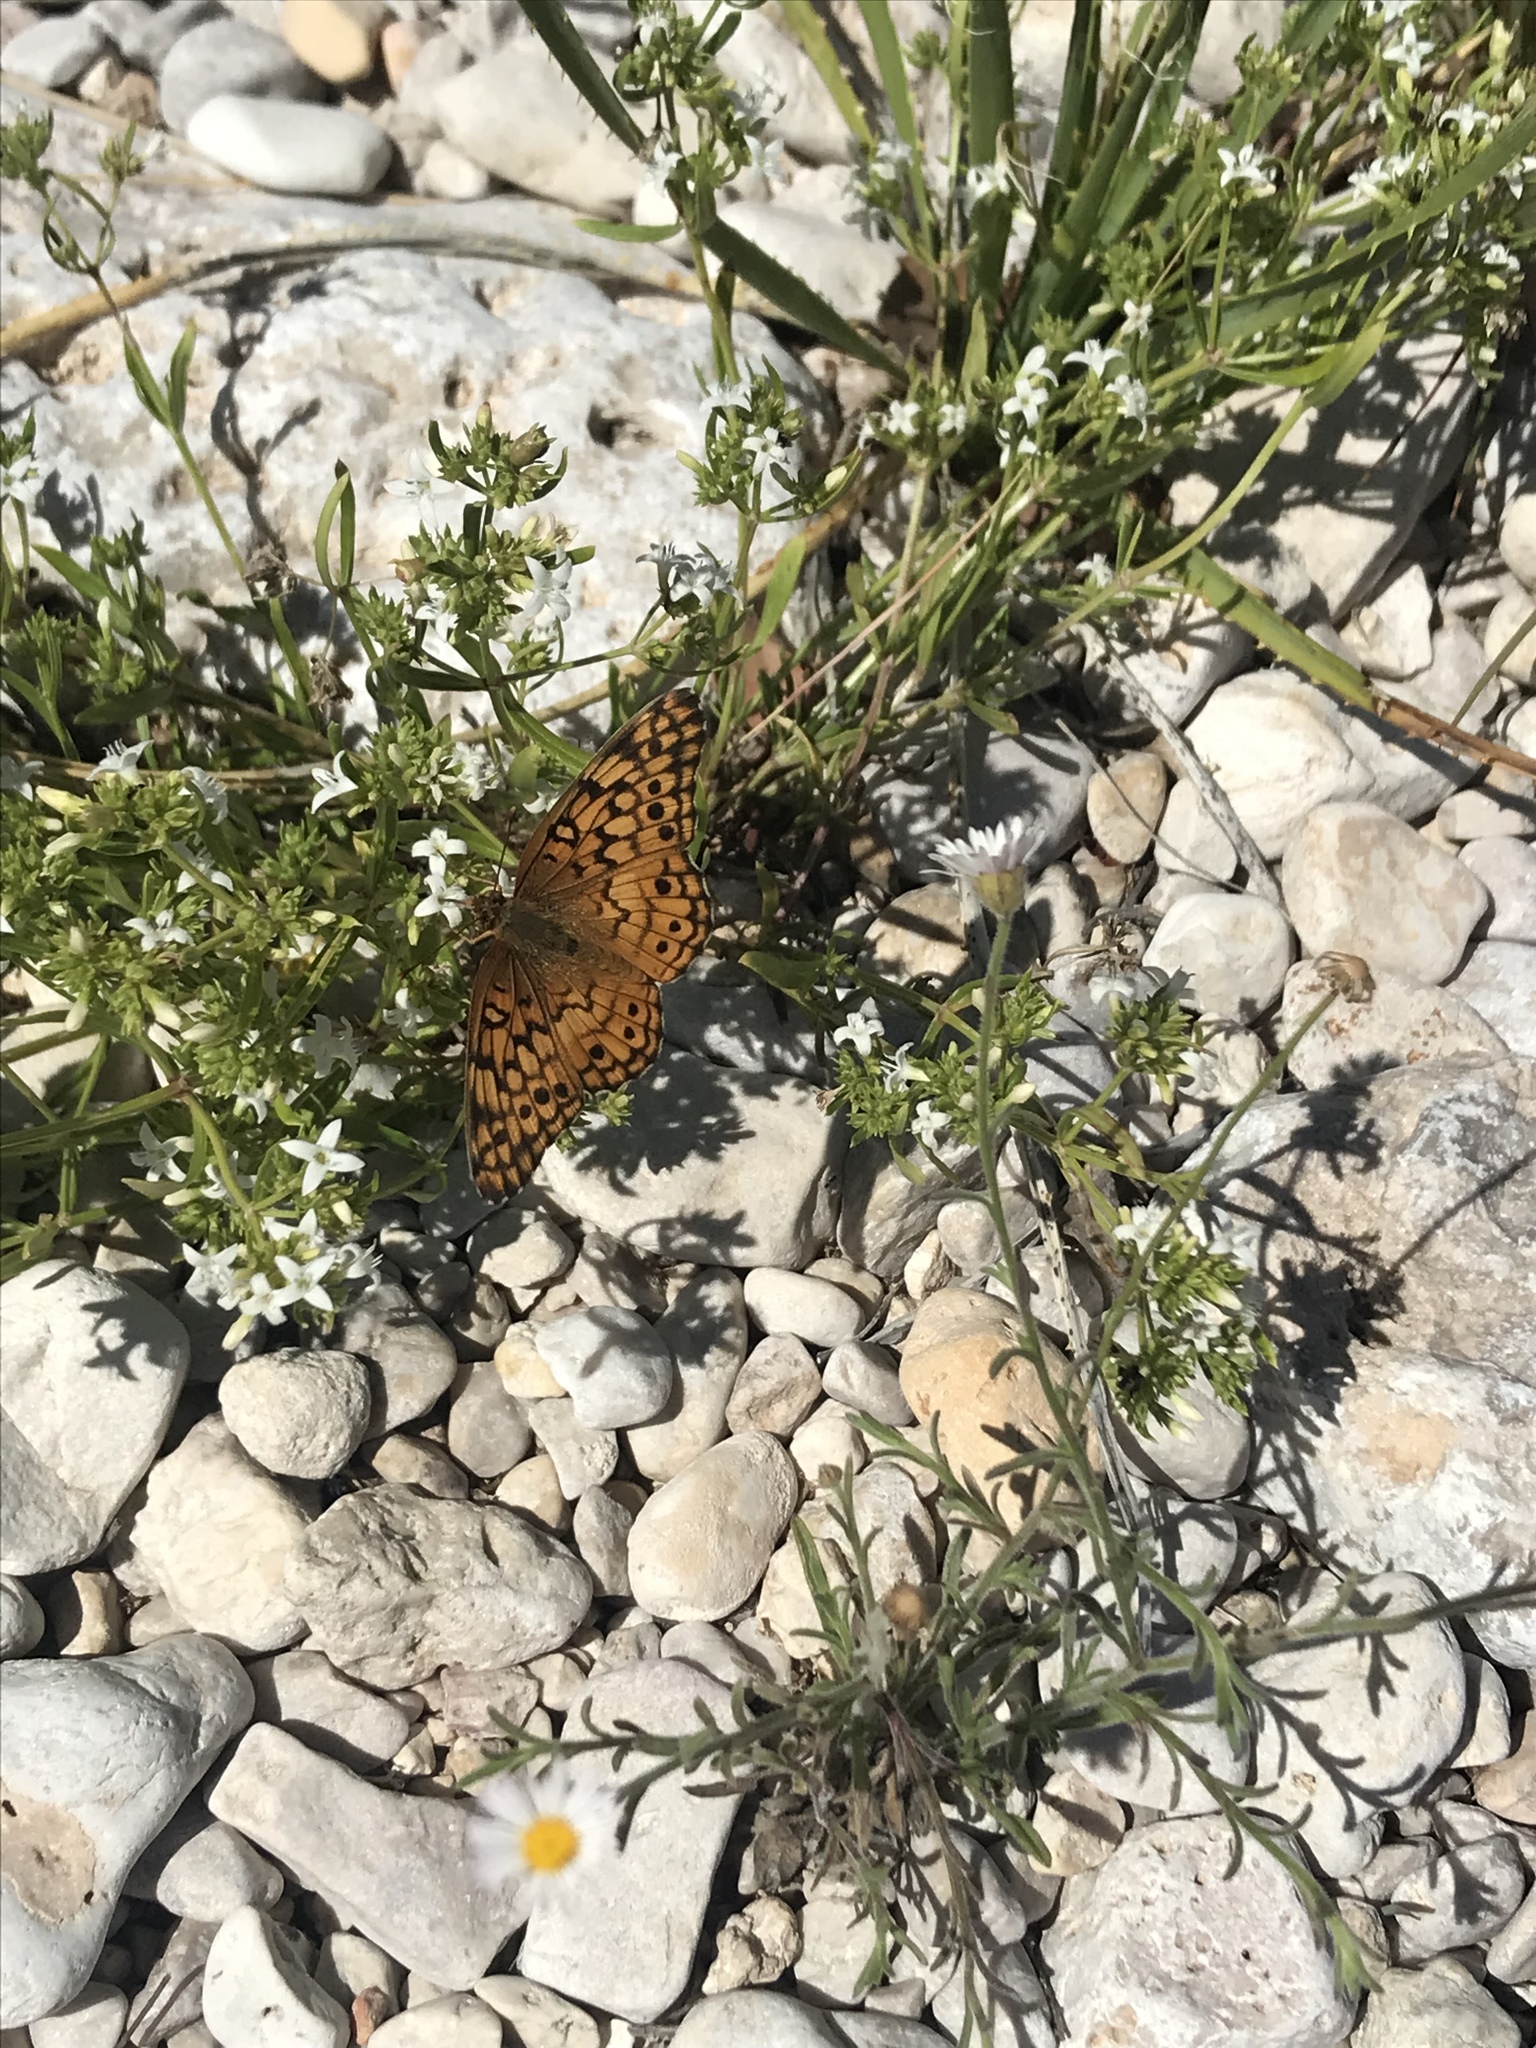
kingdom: Animalia
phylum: Arthropoda
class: Insecta
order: Lepidoptera
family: Nymphalidae
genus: Euptoieta
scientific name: Euptoieta claudia
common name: Variegated fritillary
